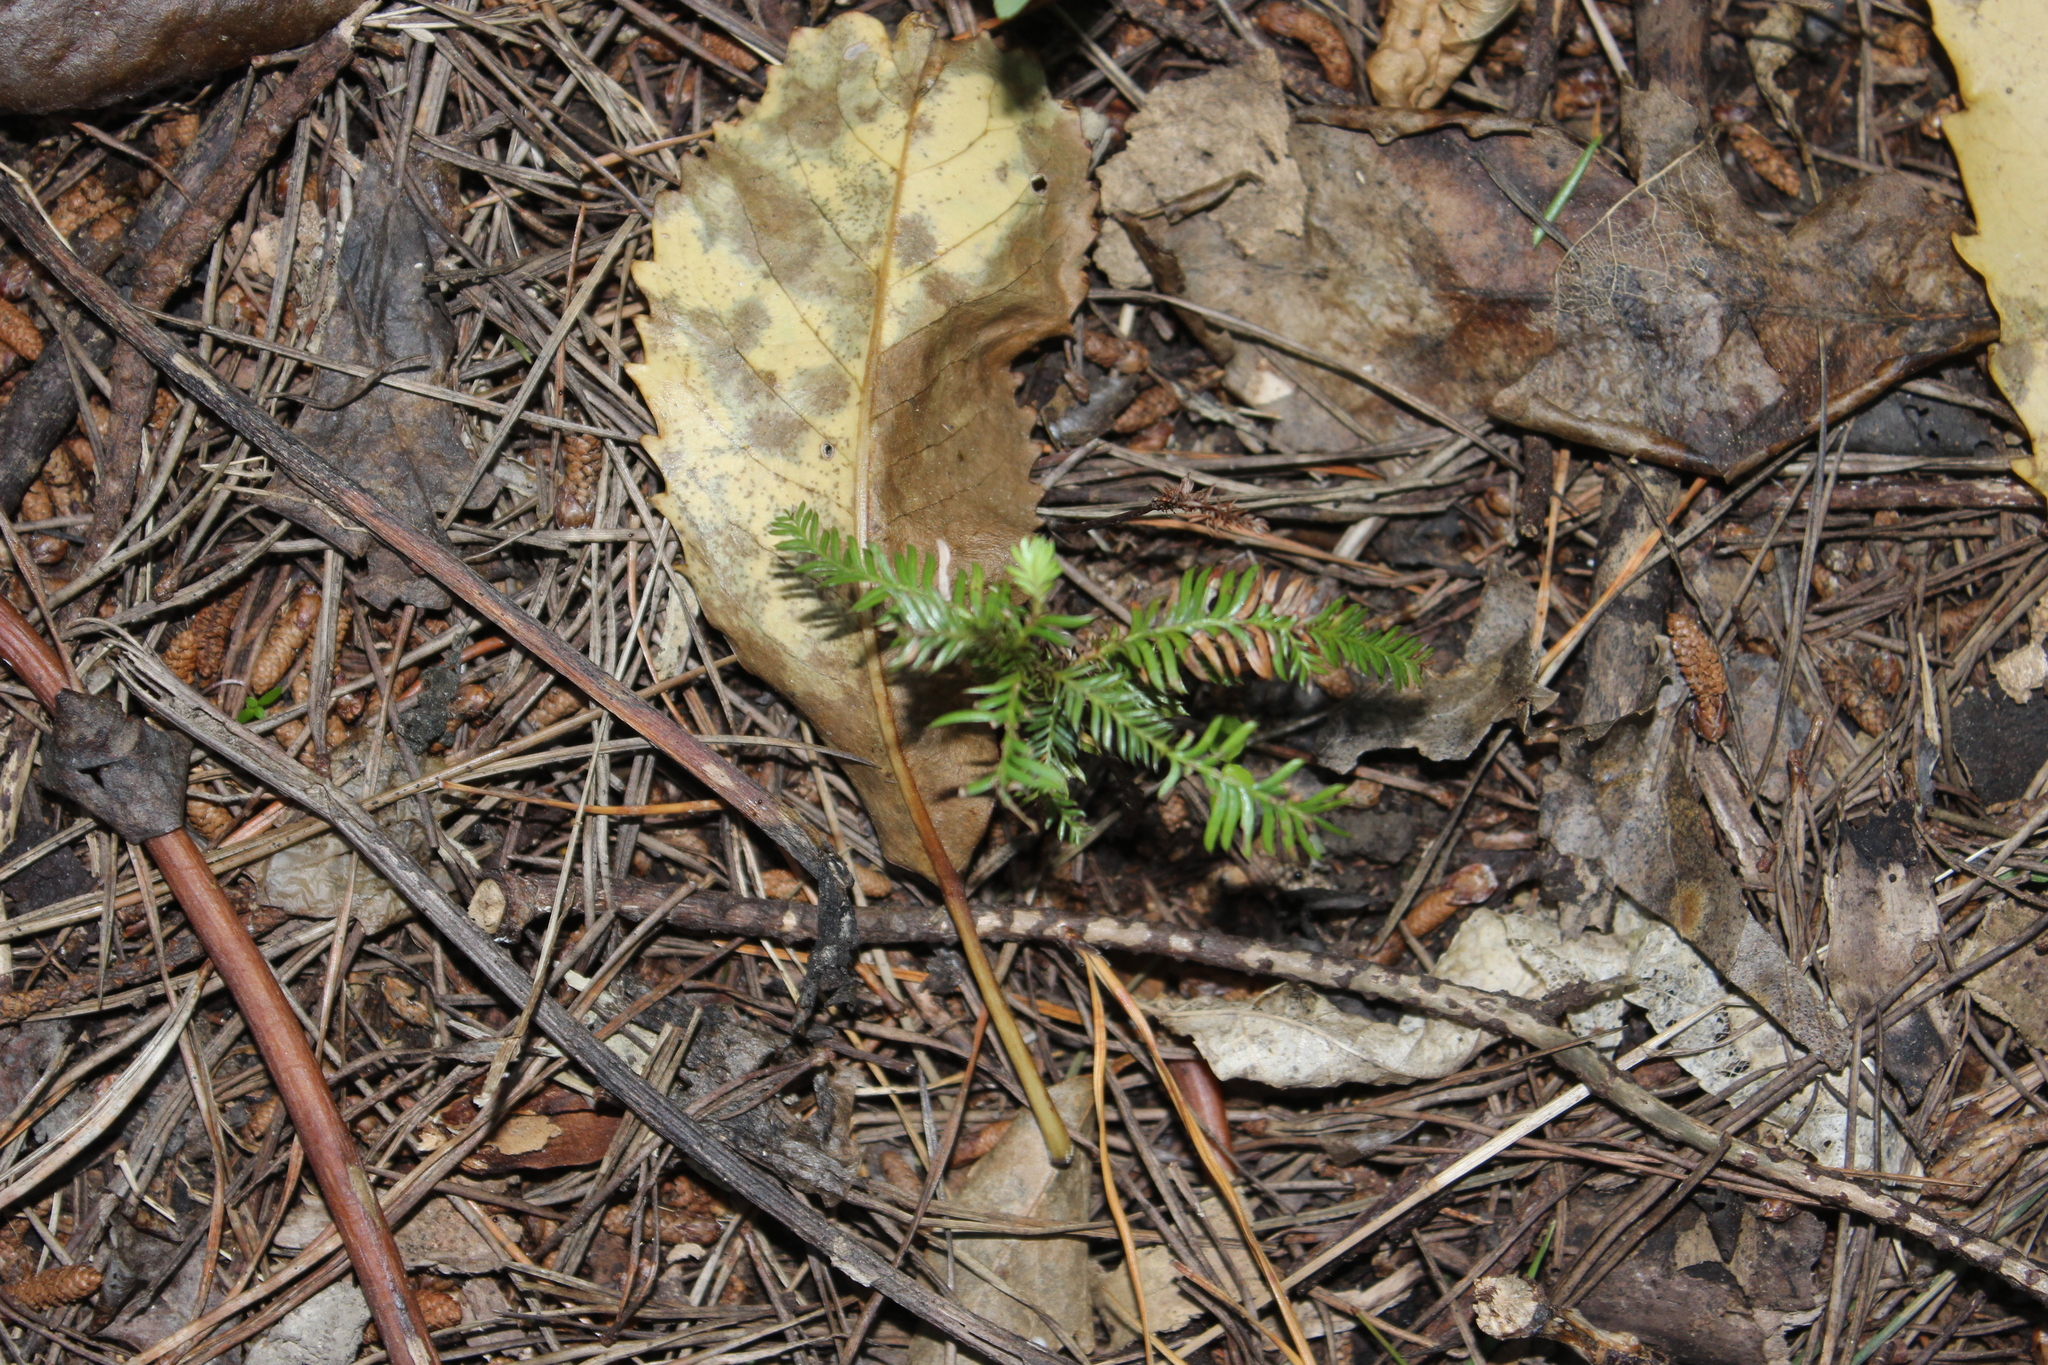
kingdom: Plantae
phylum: Tracheophyta
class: Pinopsida
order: Pinales
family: Podocarpaceae
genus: Dacrycarpus
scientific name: Dacrycarpus dacrydioides
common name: White pine
